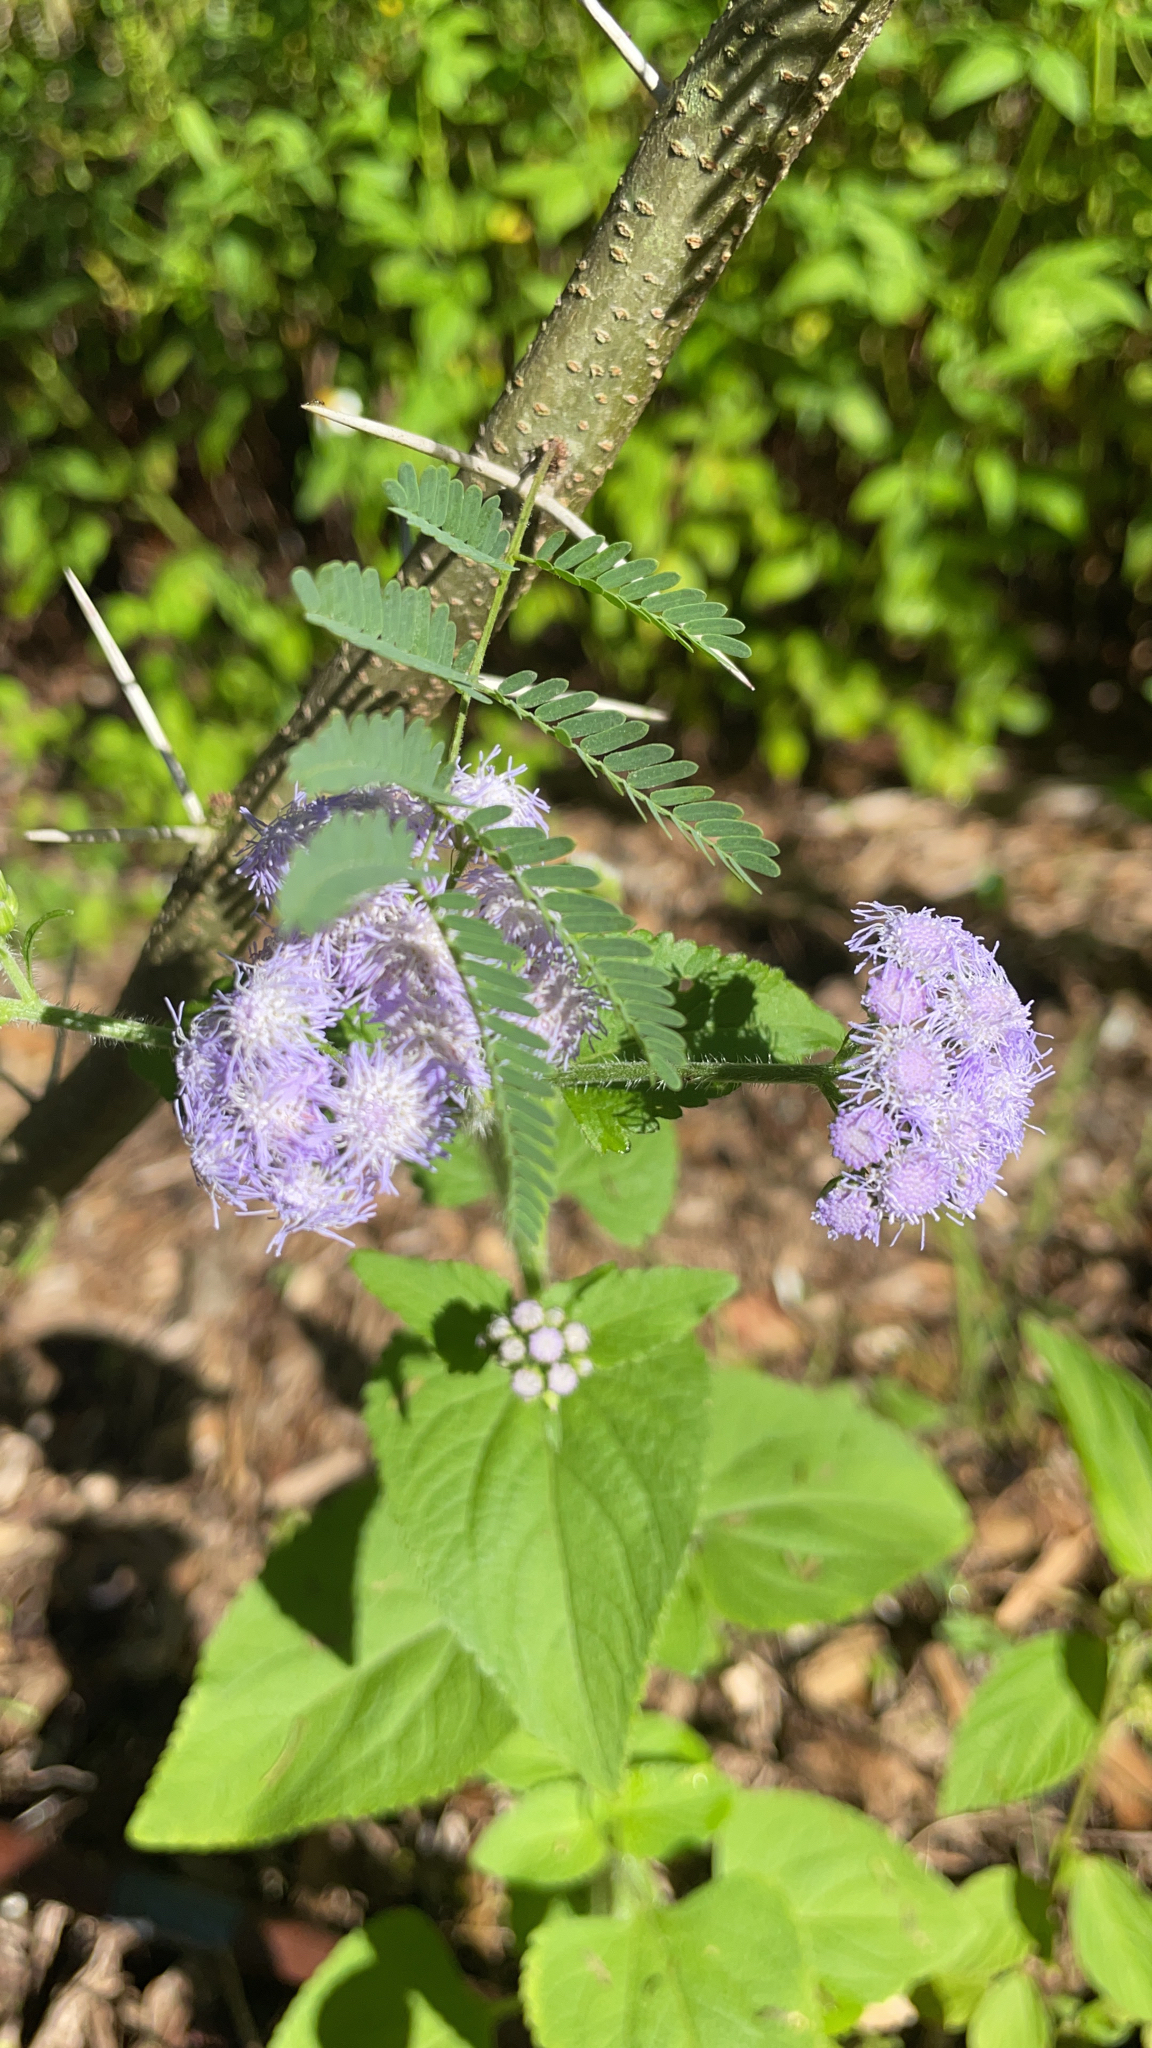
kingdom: Plantae
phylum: Tracheophyta
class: Magnoliopsida
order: Asterales
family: Asteraceae
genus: Conoclinium
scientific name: Conoclinium coelestinum
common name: Blue mistflower
